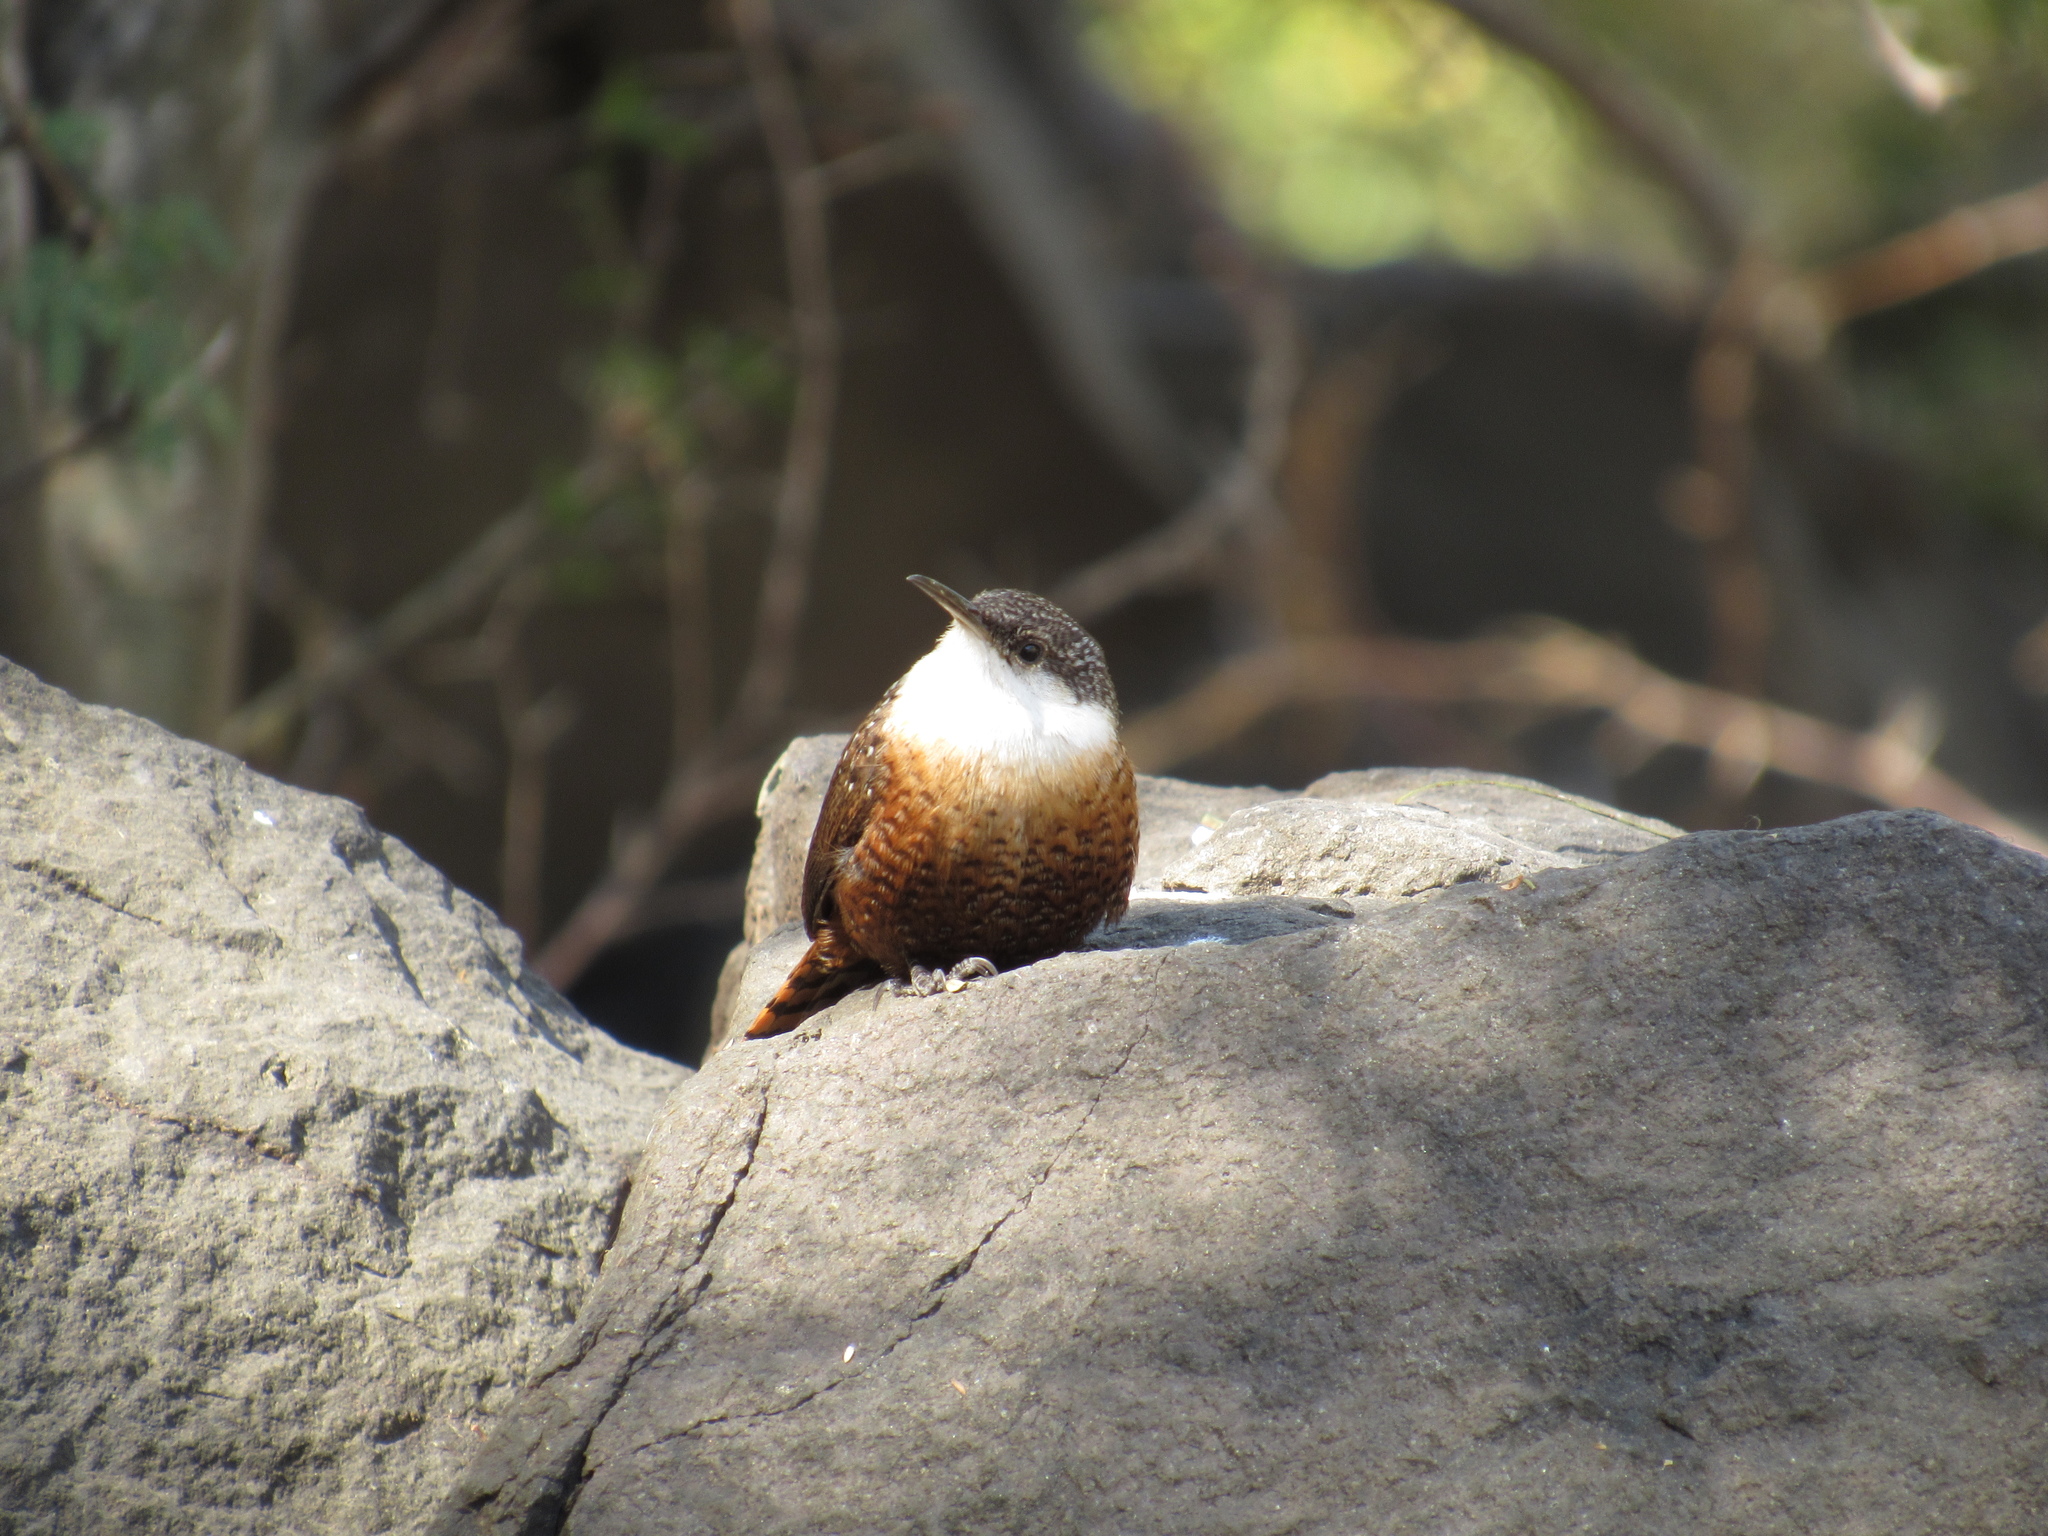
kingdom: Animalia
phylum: Chordata
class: Aves
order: Passeriformes
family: Troglodytidae
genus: Catherpes
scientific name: Catherpes mexicanus
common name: Canyon wren
